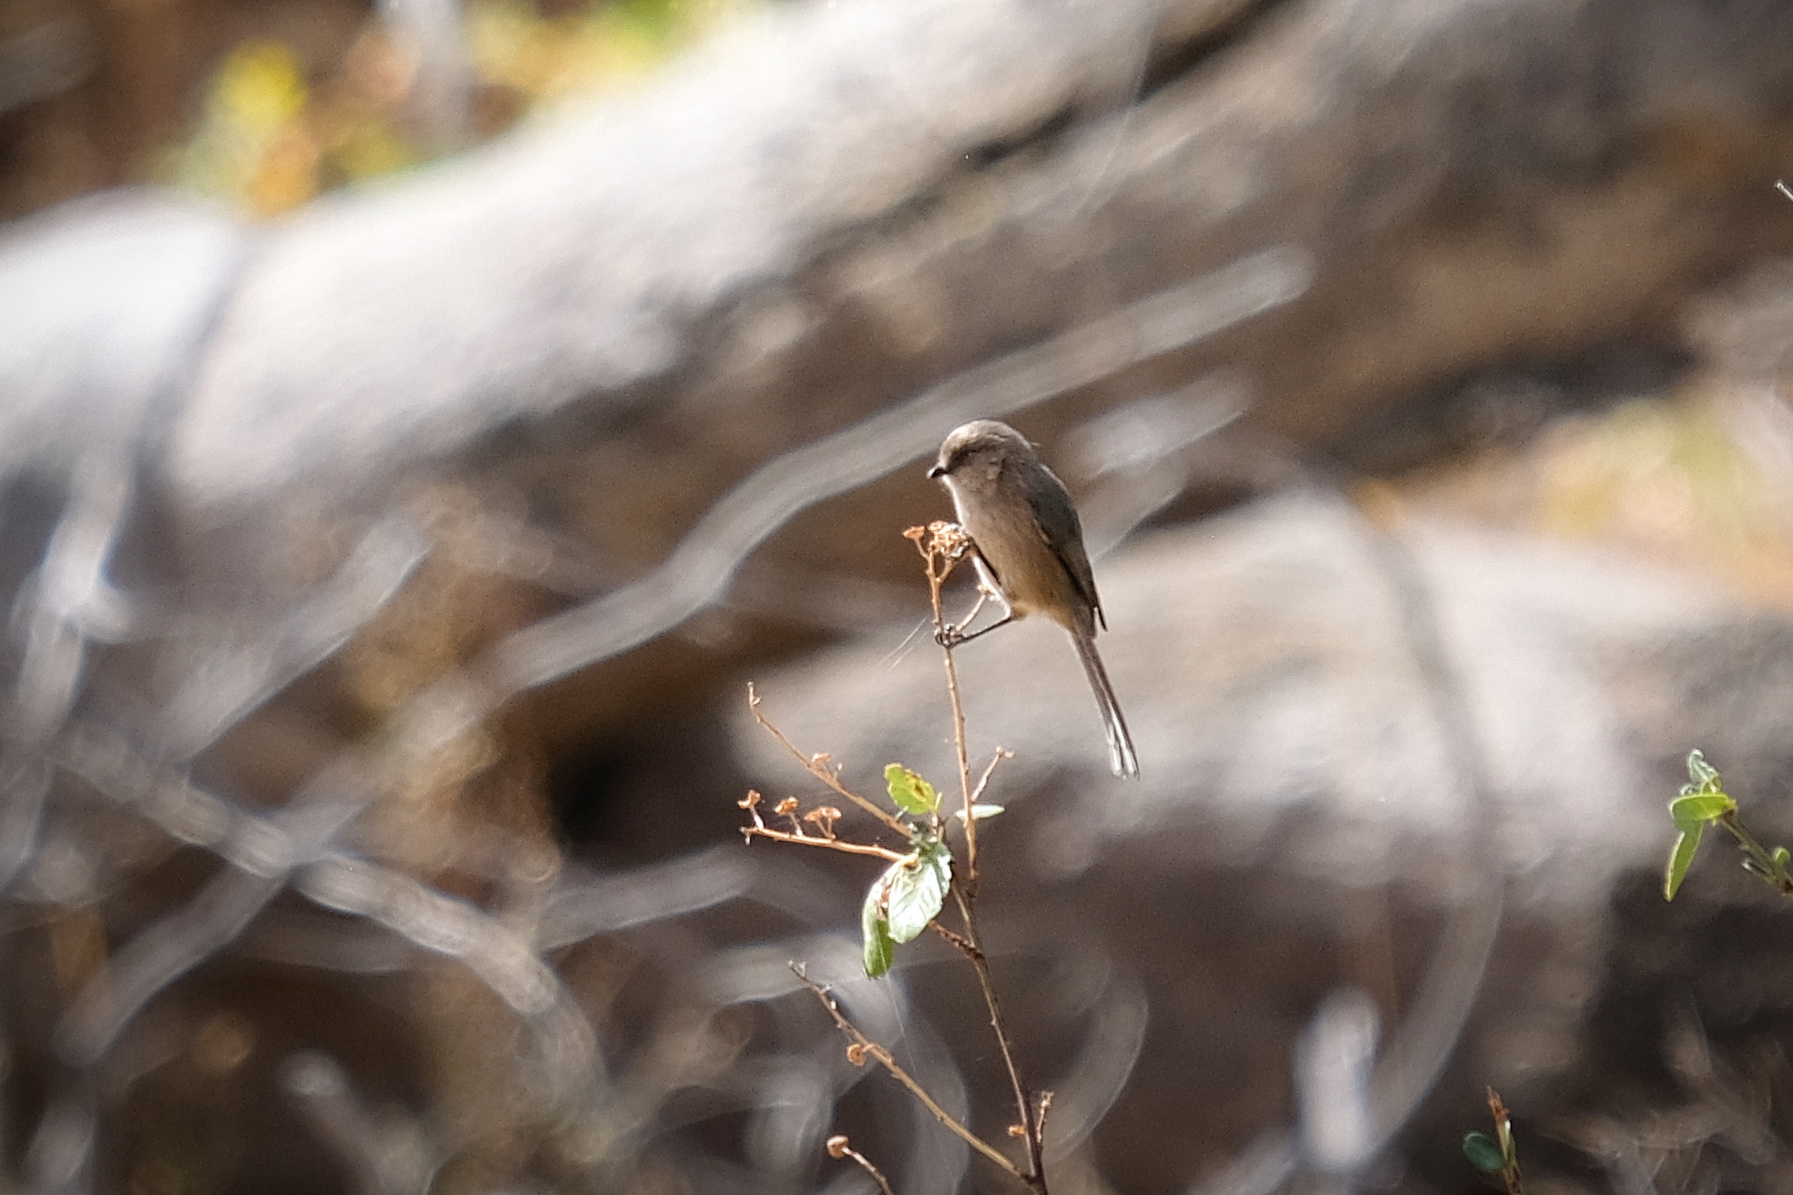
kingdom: Animalia
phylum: Chordata
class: Aves
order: Passeriformes
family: Aegithalidae
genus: Psaltriparus
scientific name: Psaltriparus minimus
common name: American bushtit
